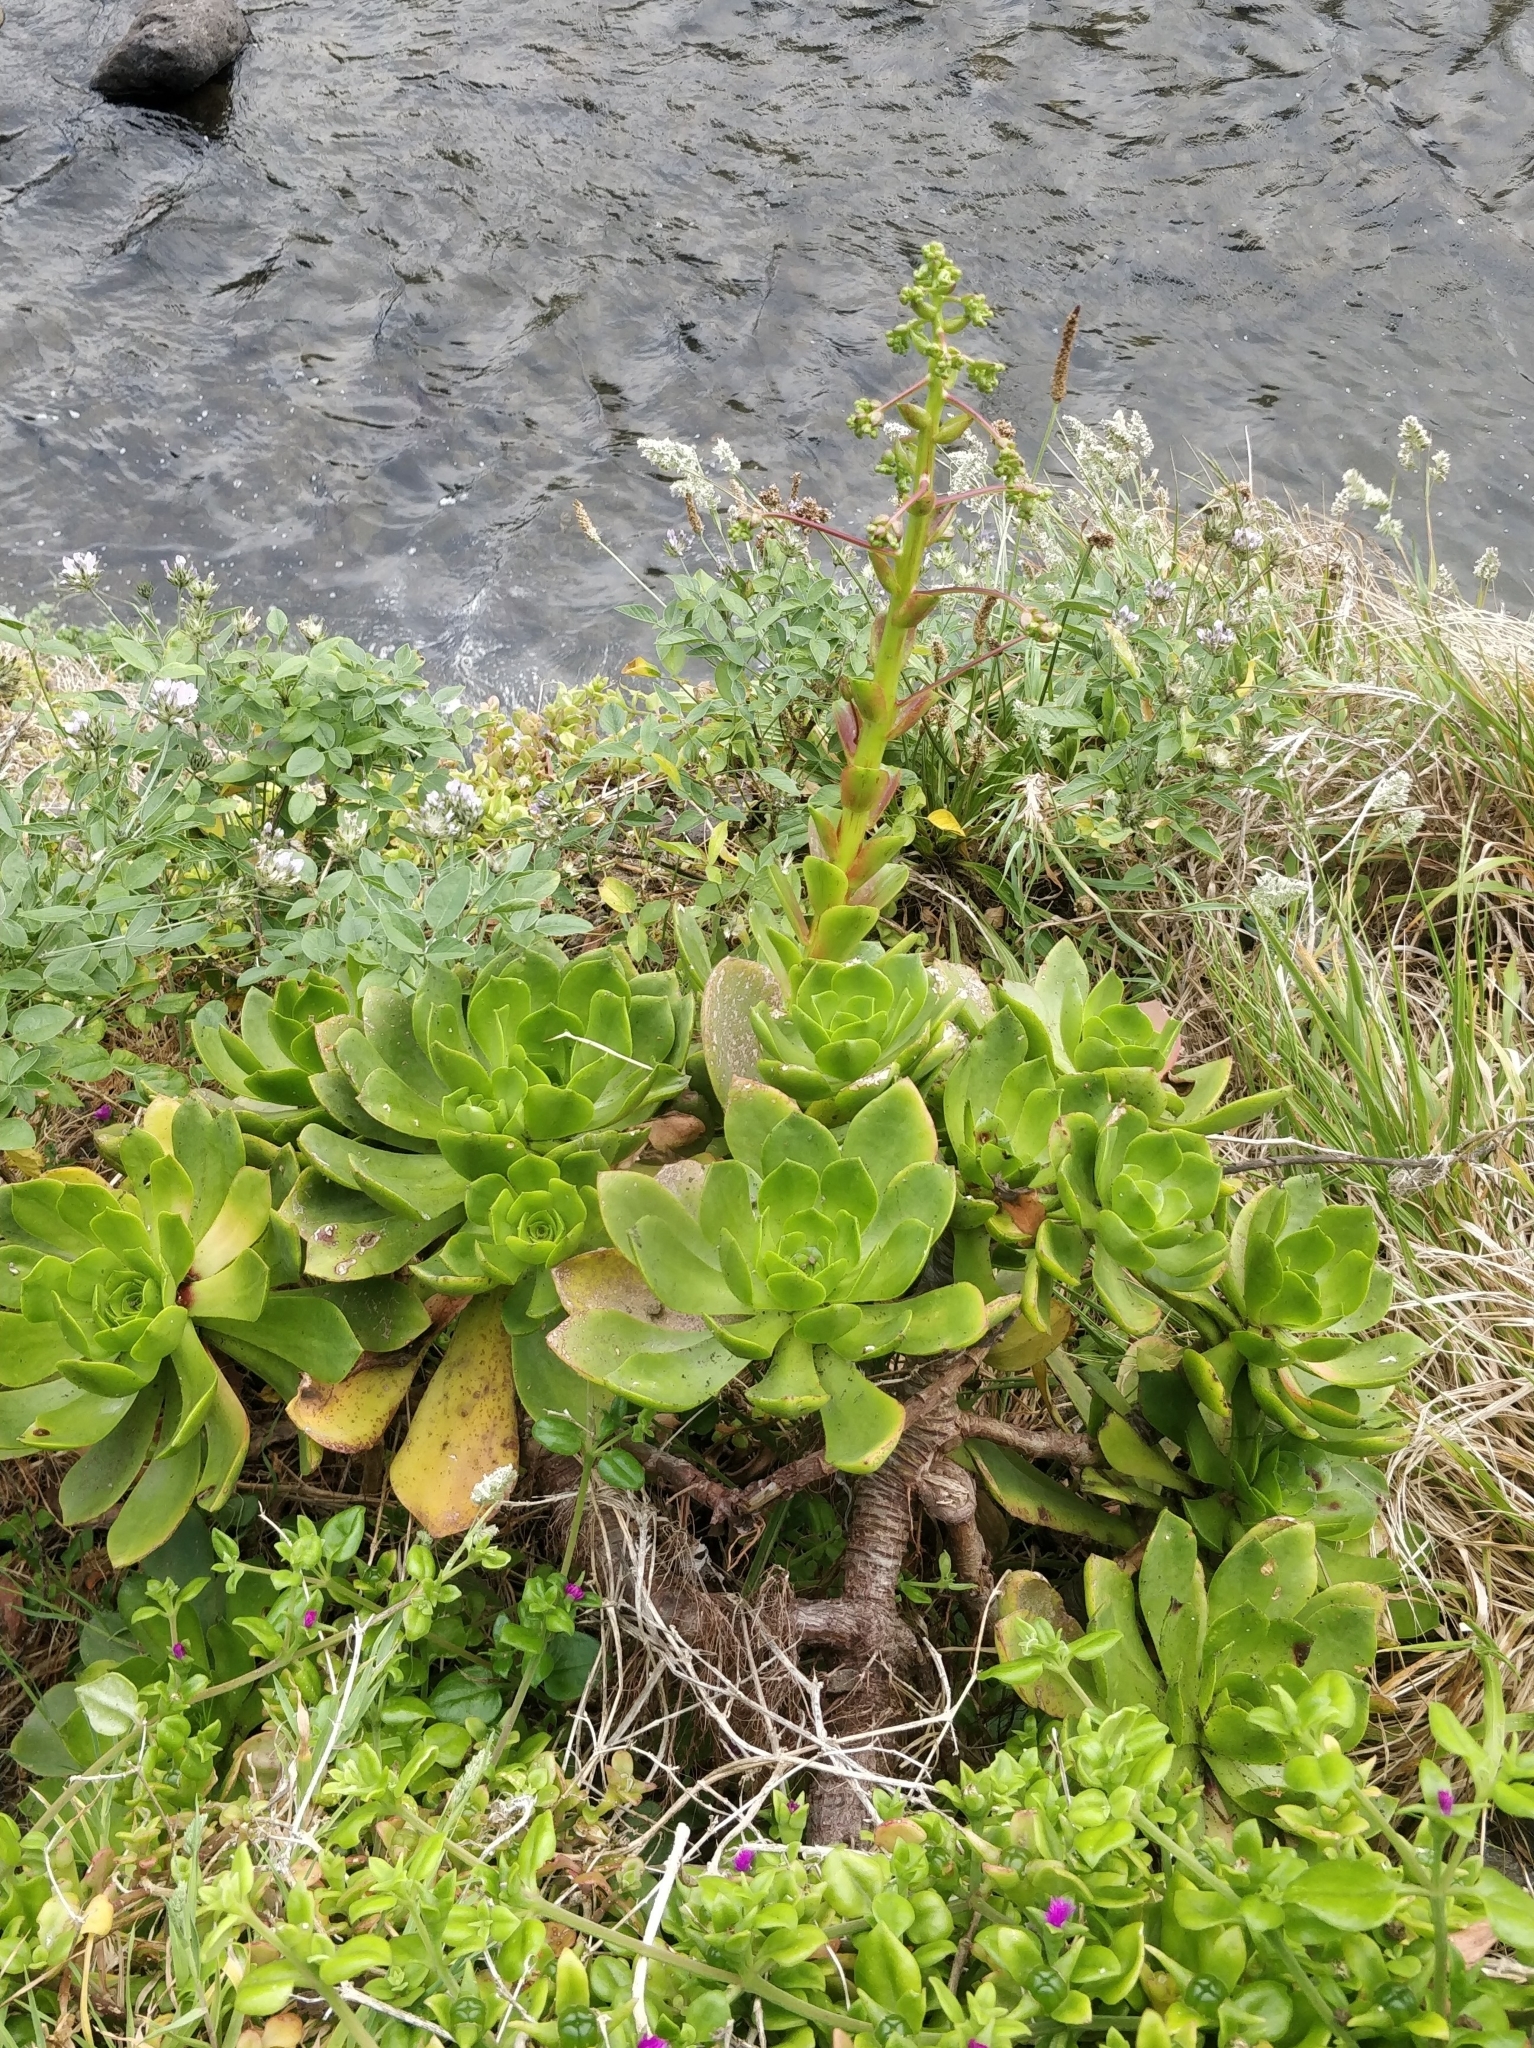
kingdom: Plantae
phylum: Tracheophyta
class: Magnoliopsida
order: Saxifragales
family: Crassulaceae
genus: Aeonium
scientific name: Aeonium glutinosum
